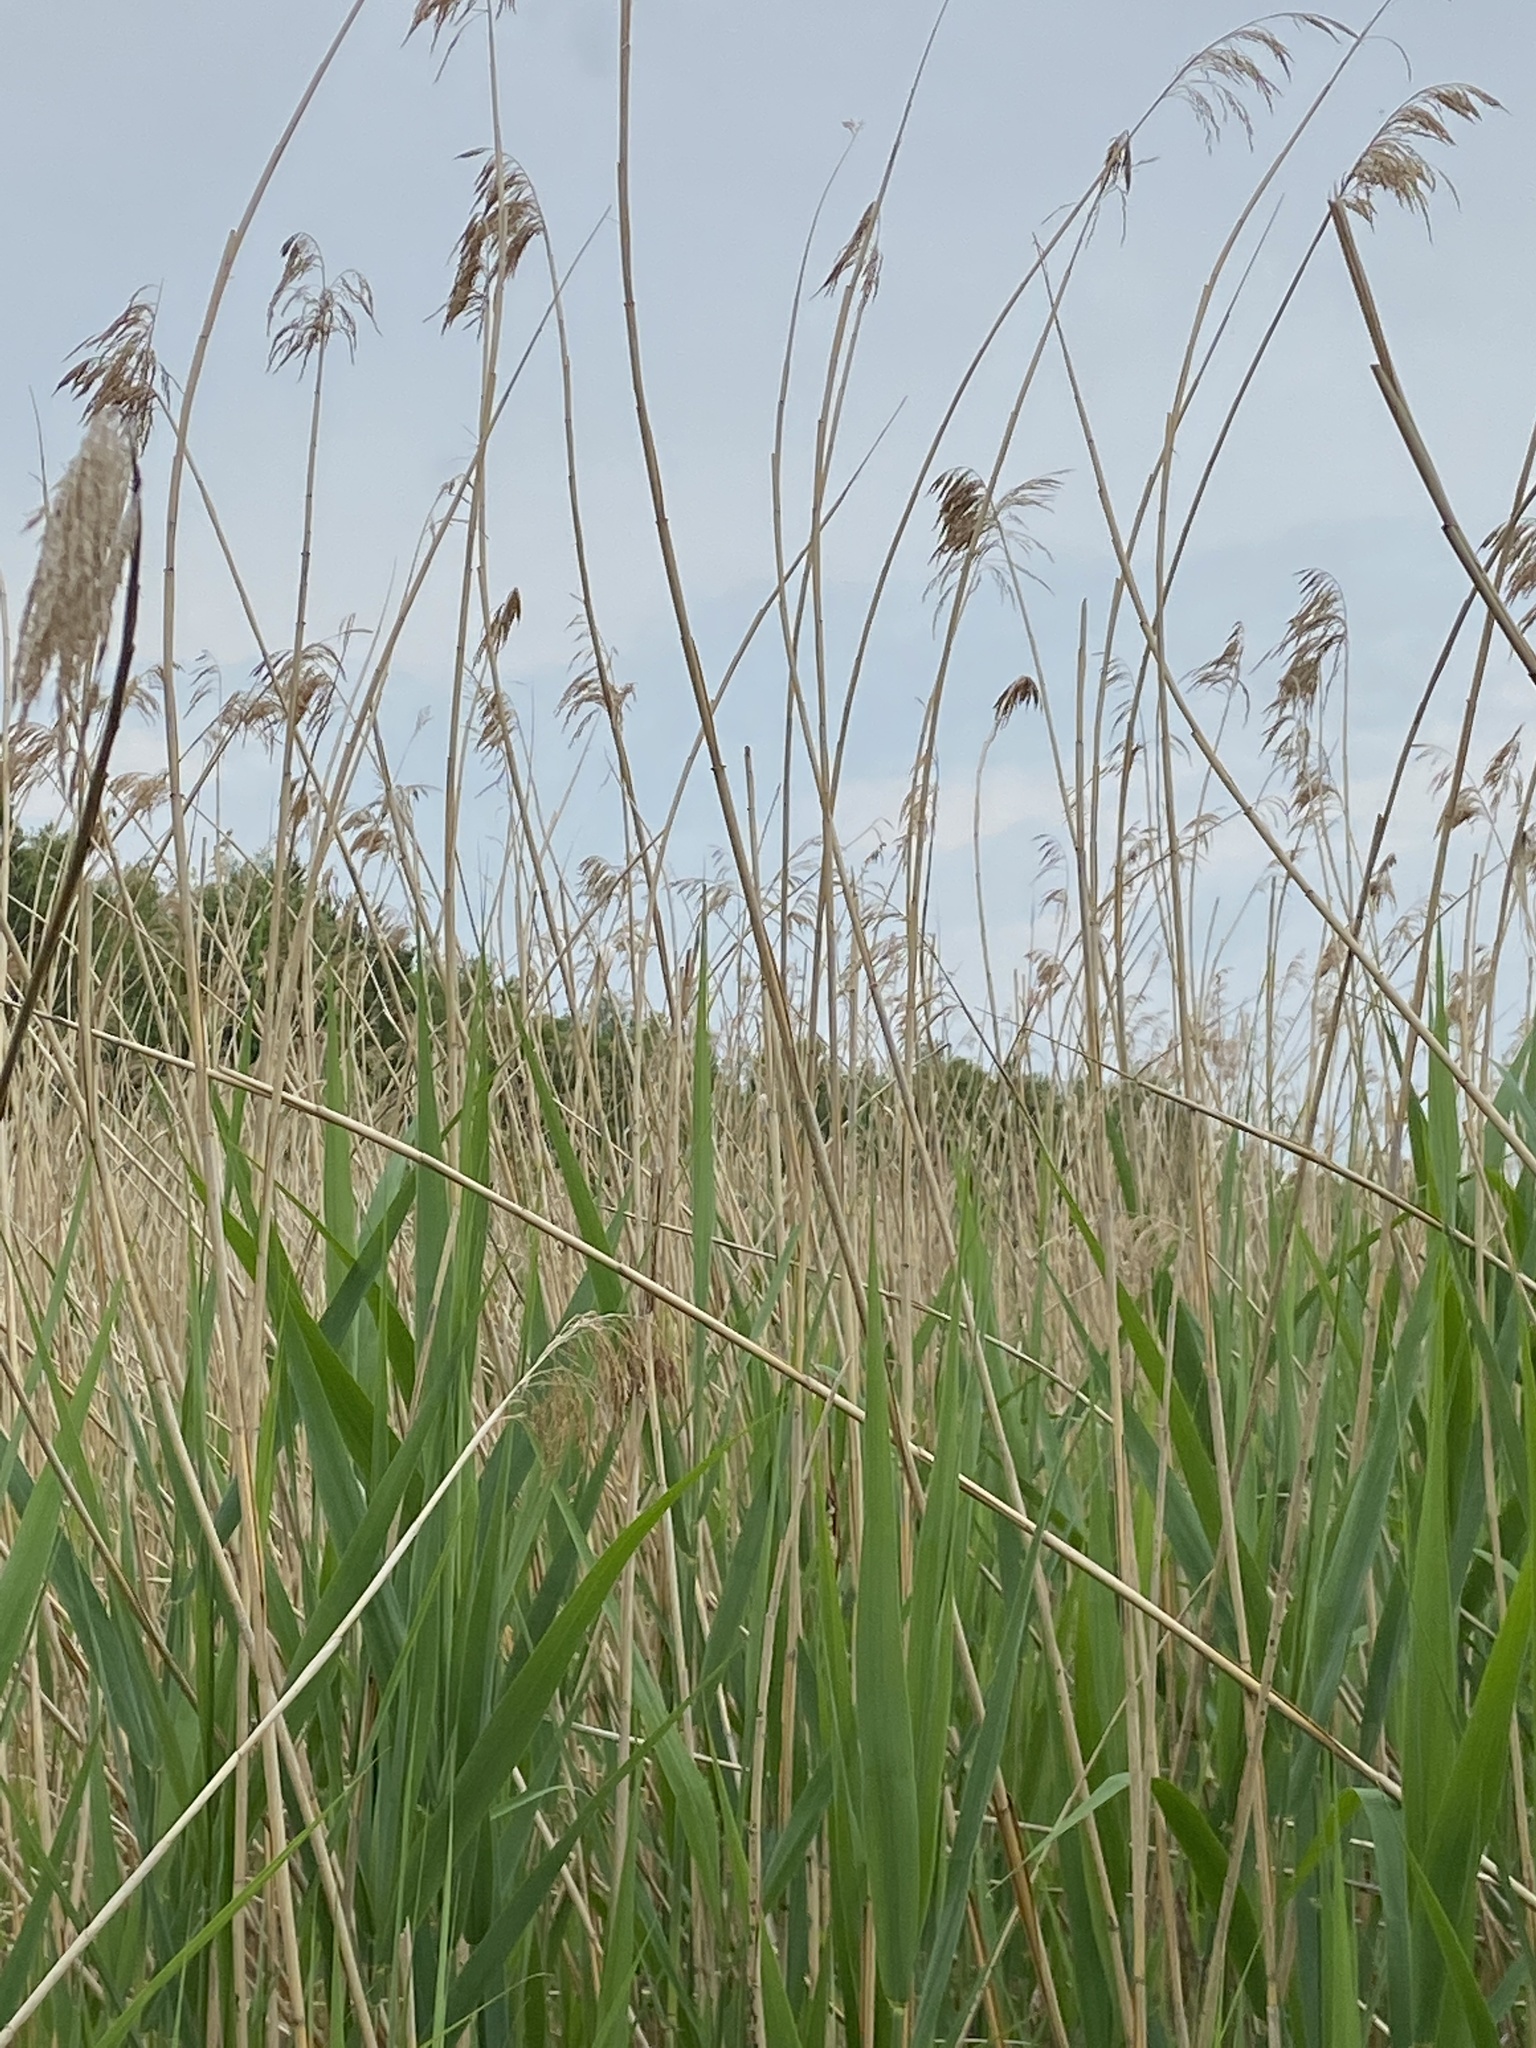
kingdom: Plantae
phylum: Tracheophyta
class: Liliopsida
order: Poales
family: Poaceae
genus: Phragmites
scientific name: Phragmites australis
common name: Common reed
